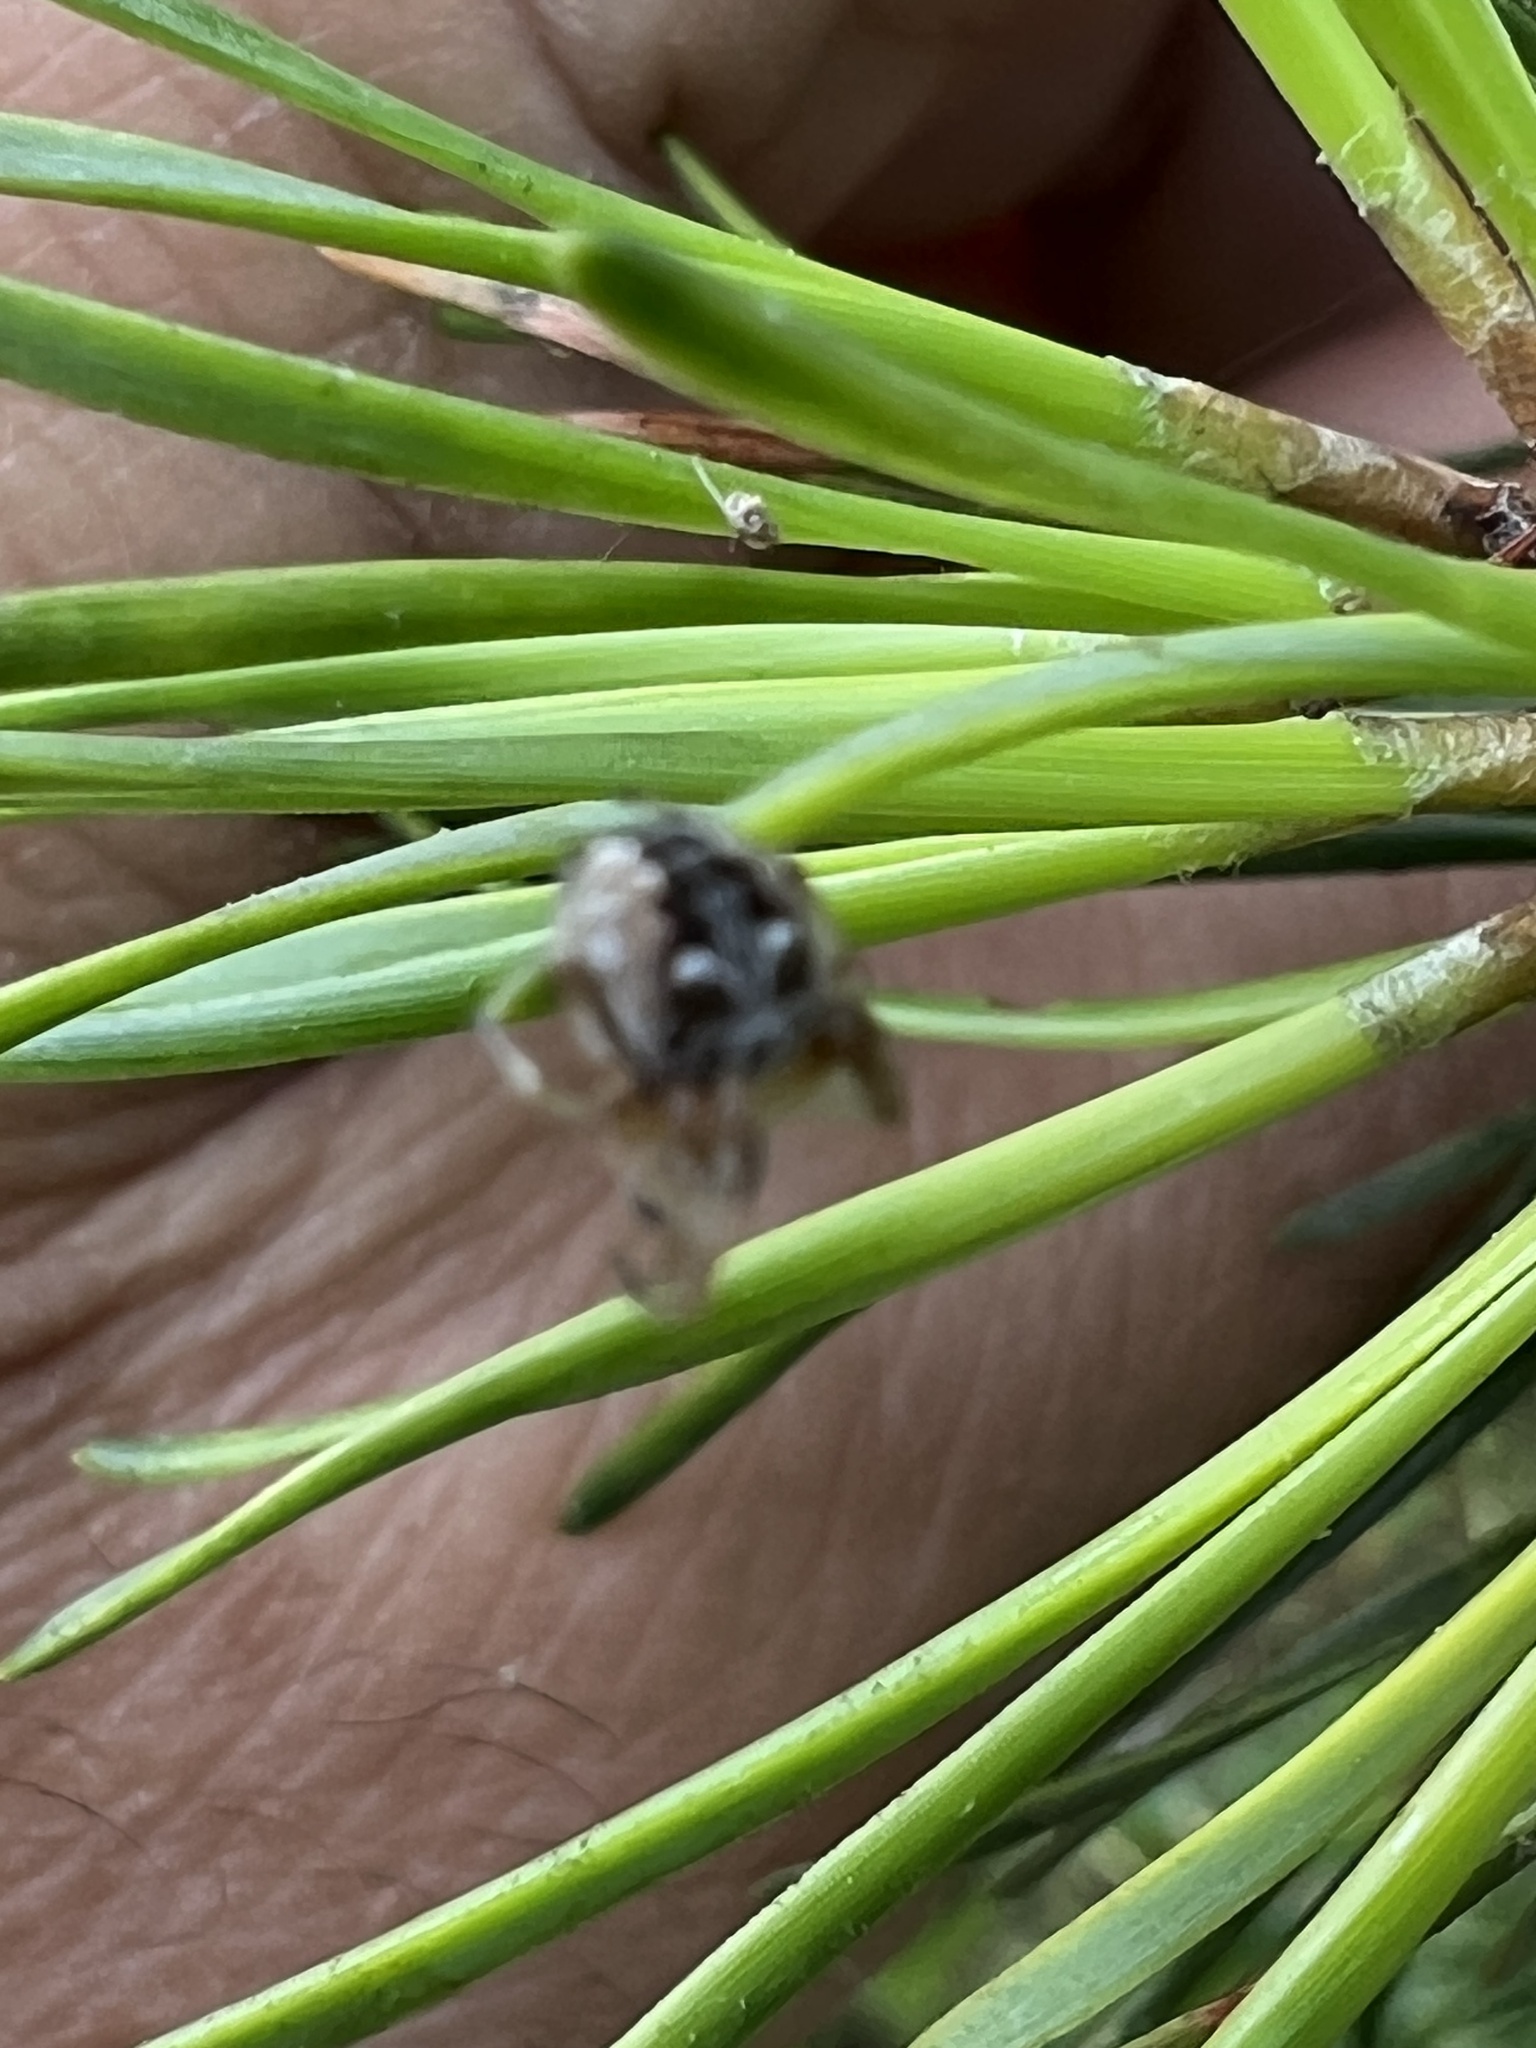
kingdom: Animalia
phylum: Arthropoda
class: Arachnida
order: Araneae
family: Araneidae
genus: Metepeira
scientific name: Metepeira labyrinthea
